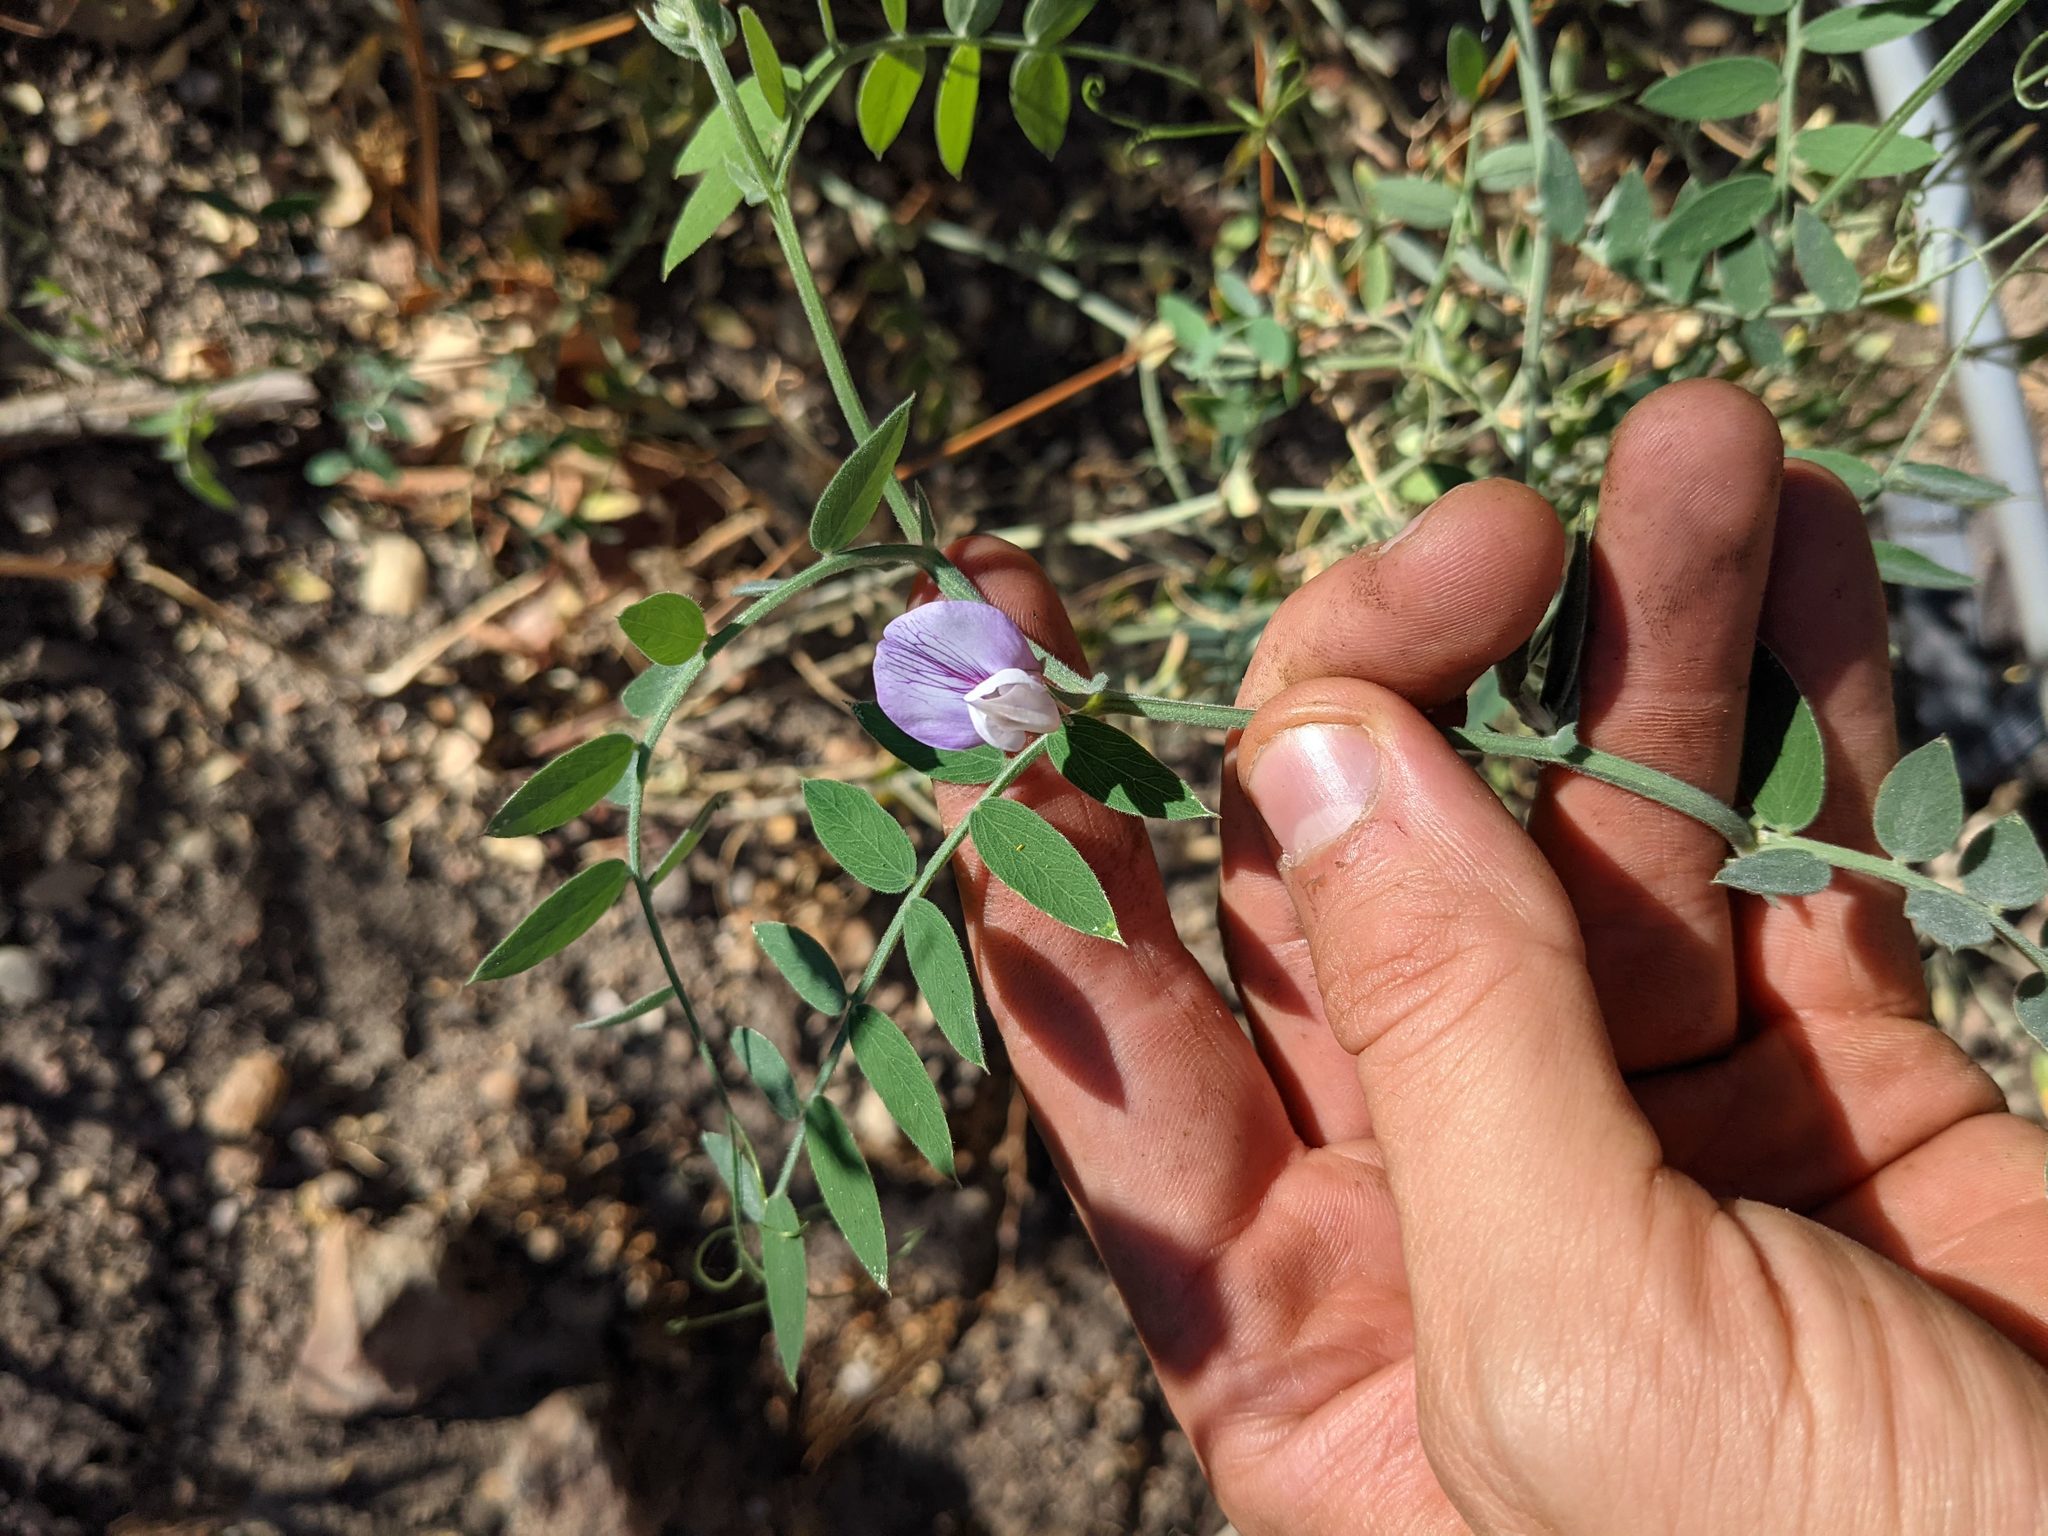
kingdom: Plantae
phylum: Tracheophyta
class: Magnoliopsida
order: Fabales
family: Fabaceae
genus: Lathyrus
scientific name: Lathyrus vestitus
